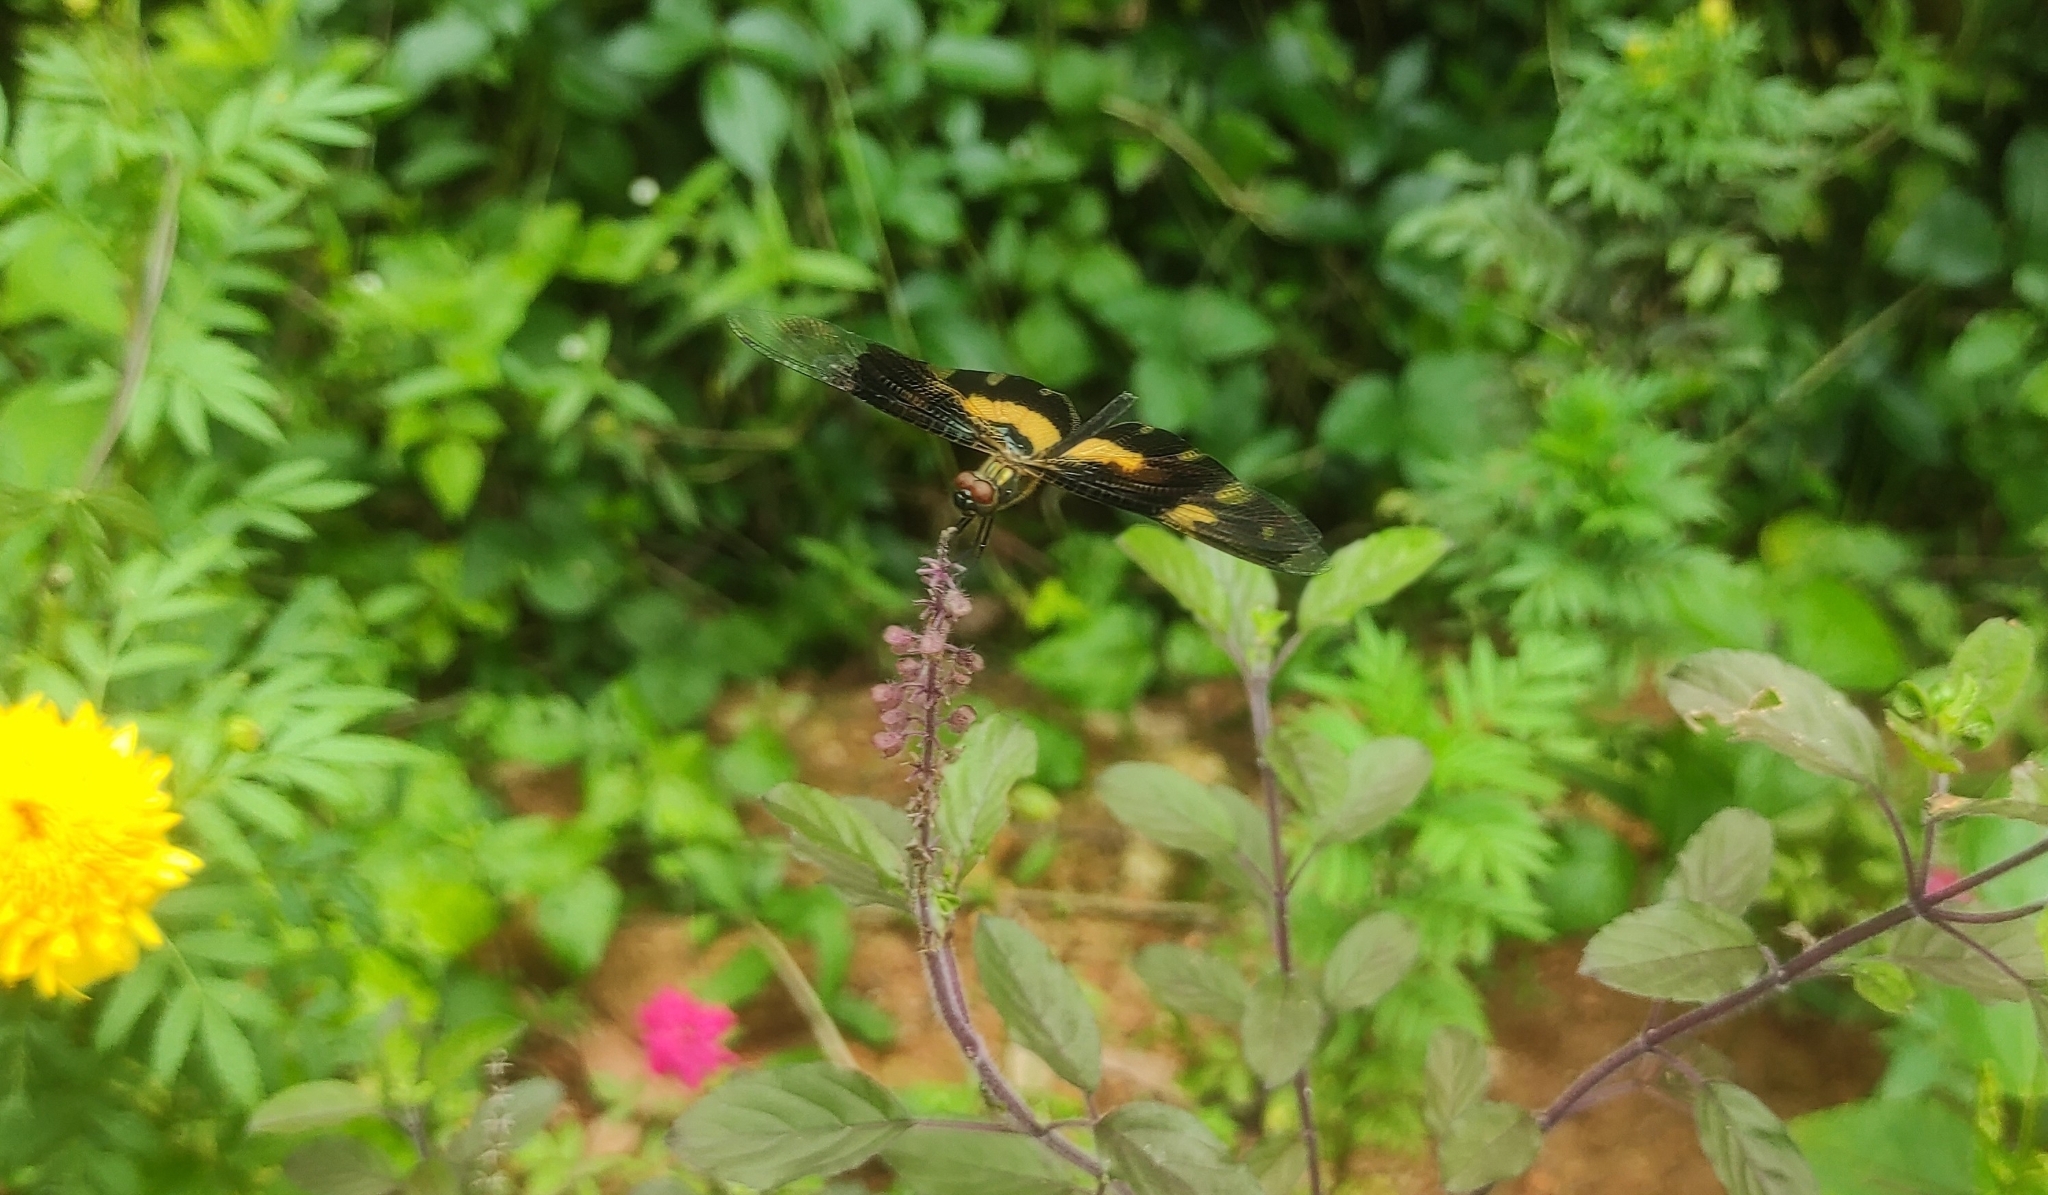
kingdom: Animalia
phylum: Arthropoda
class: Insecta
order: Odonata
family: Libellulidae
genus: Rhyothemis
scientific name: Rhyothemis variegata
